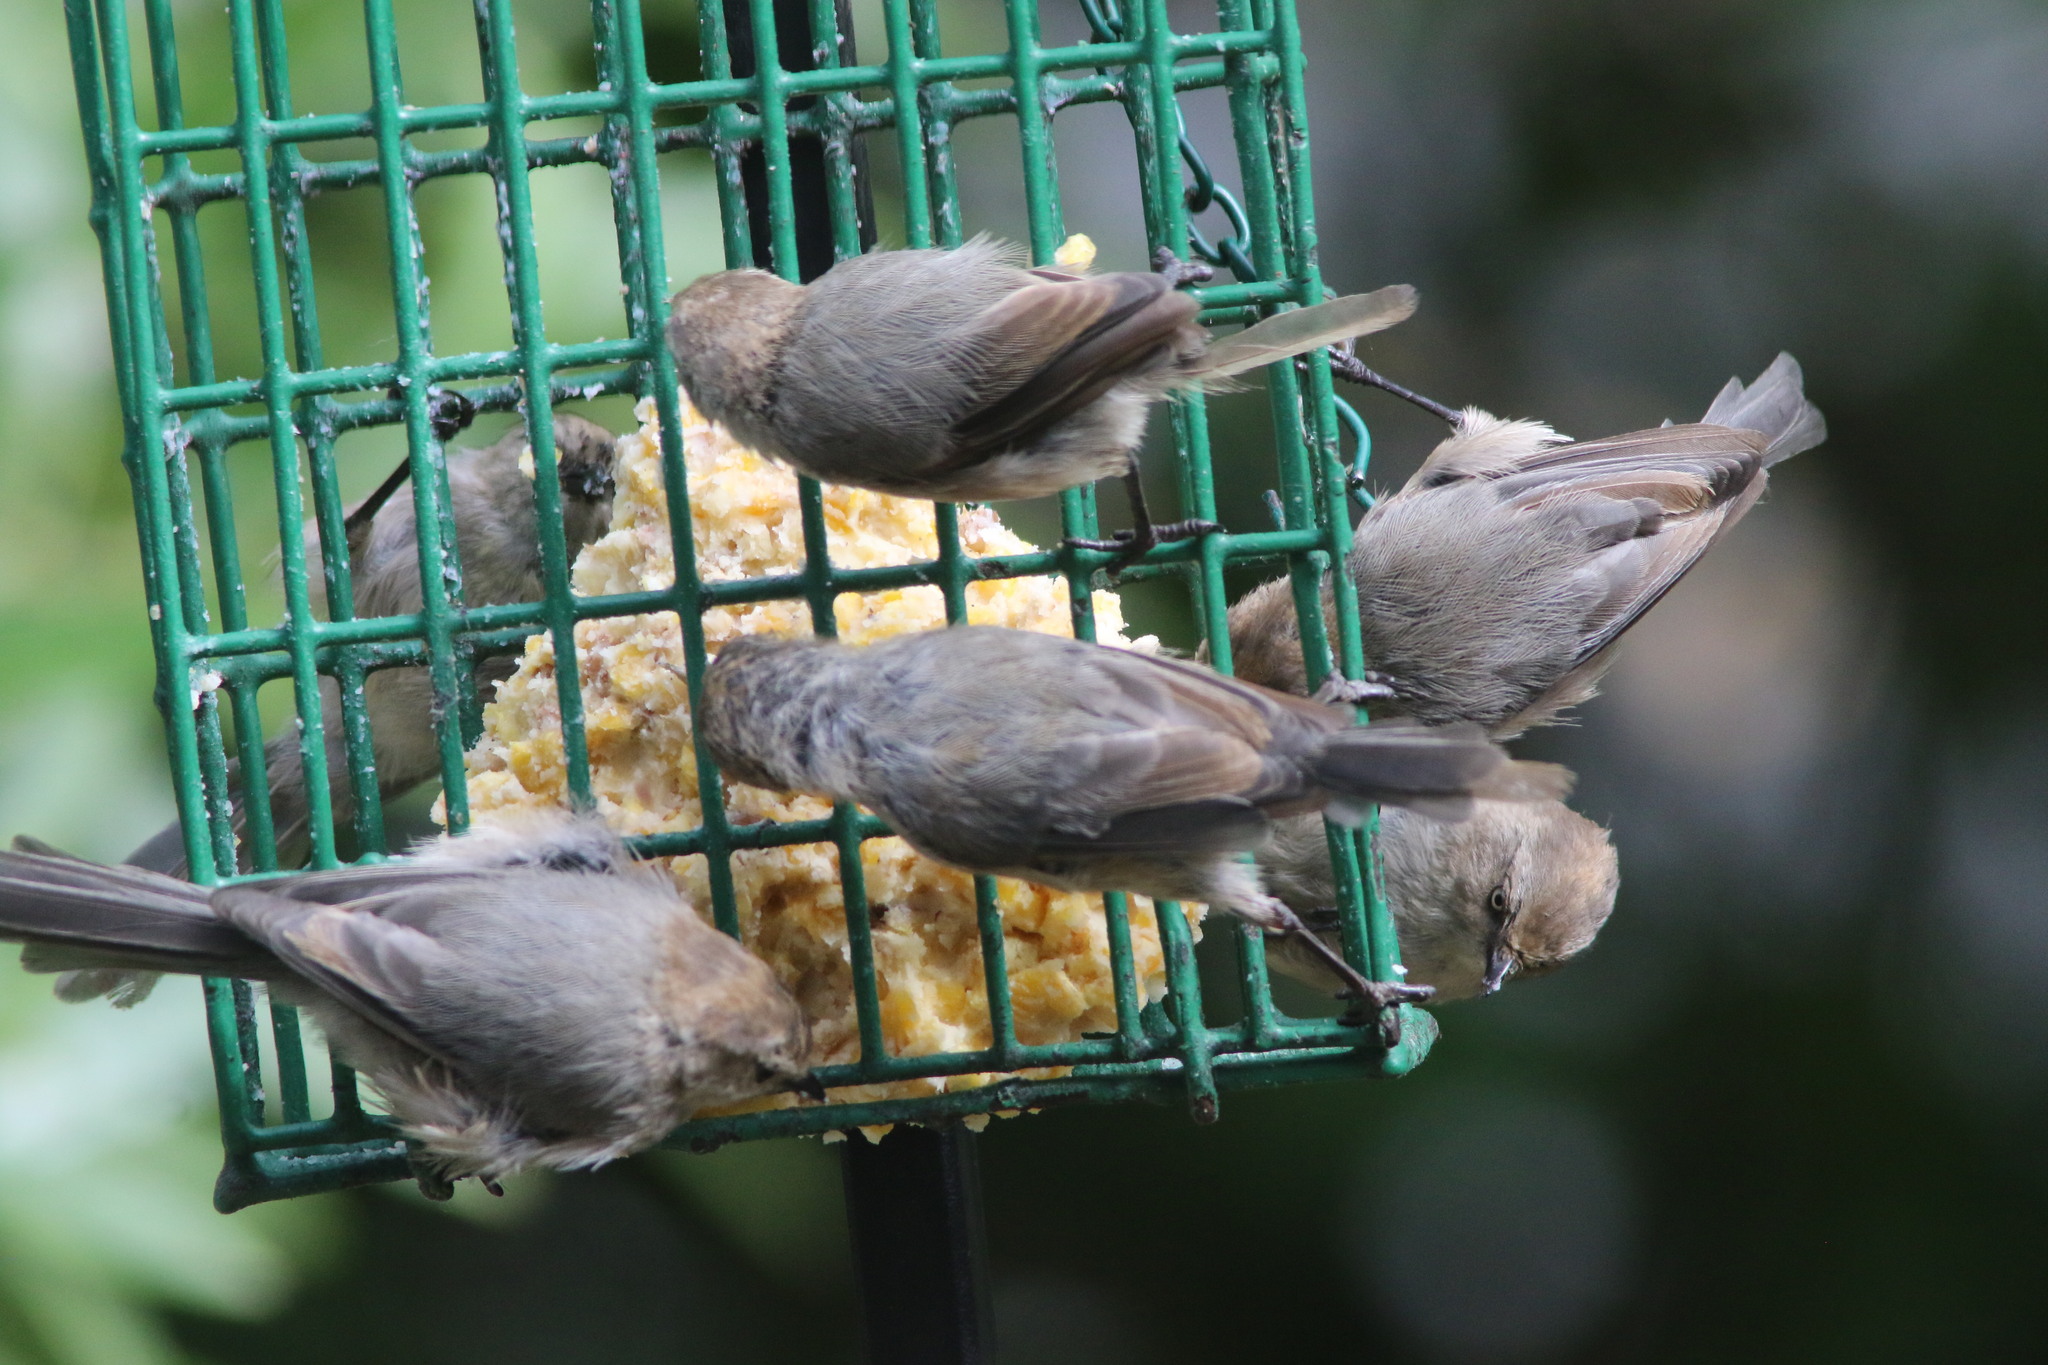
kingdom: Animalia
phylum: Chordata
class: Aves
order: Passeriformes
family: Aegithalidae
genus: Psaltriparus
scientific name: Psaltriparus minimus
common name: American bushtit
